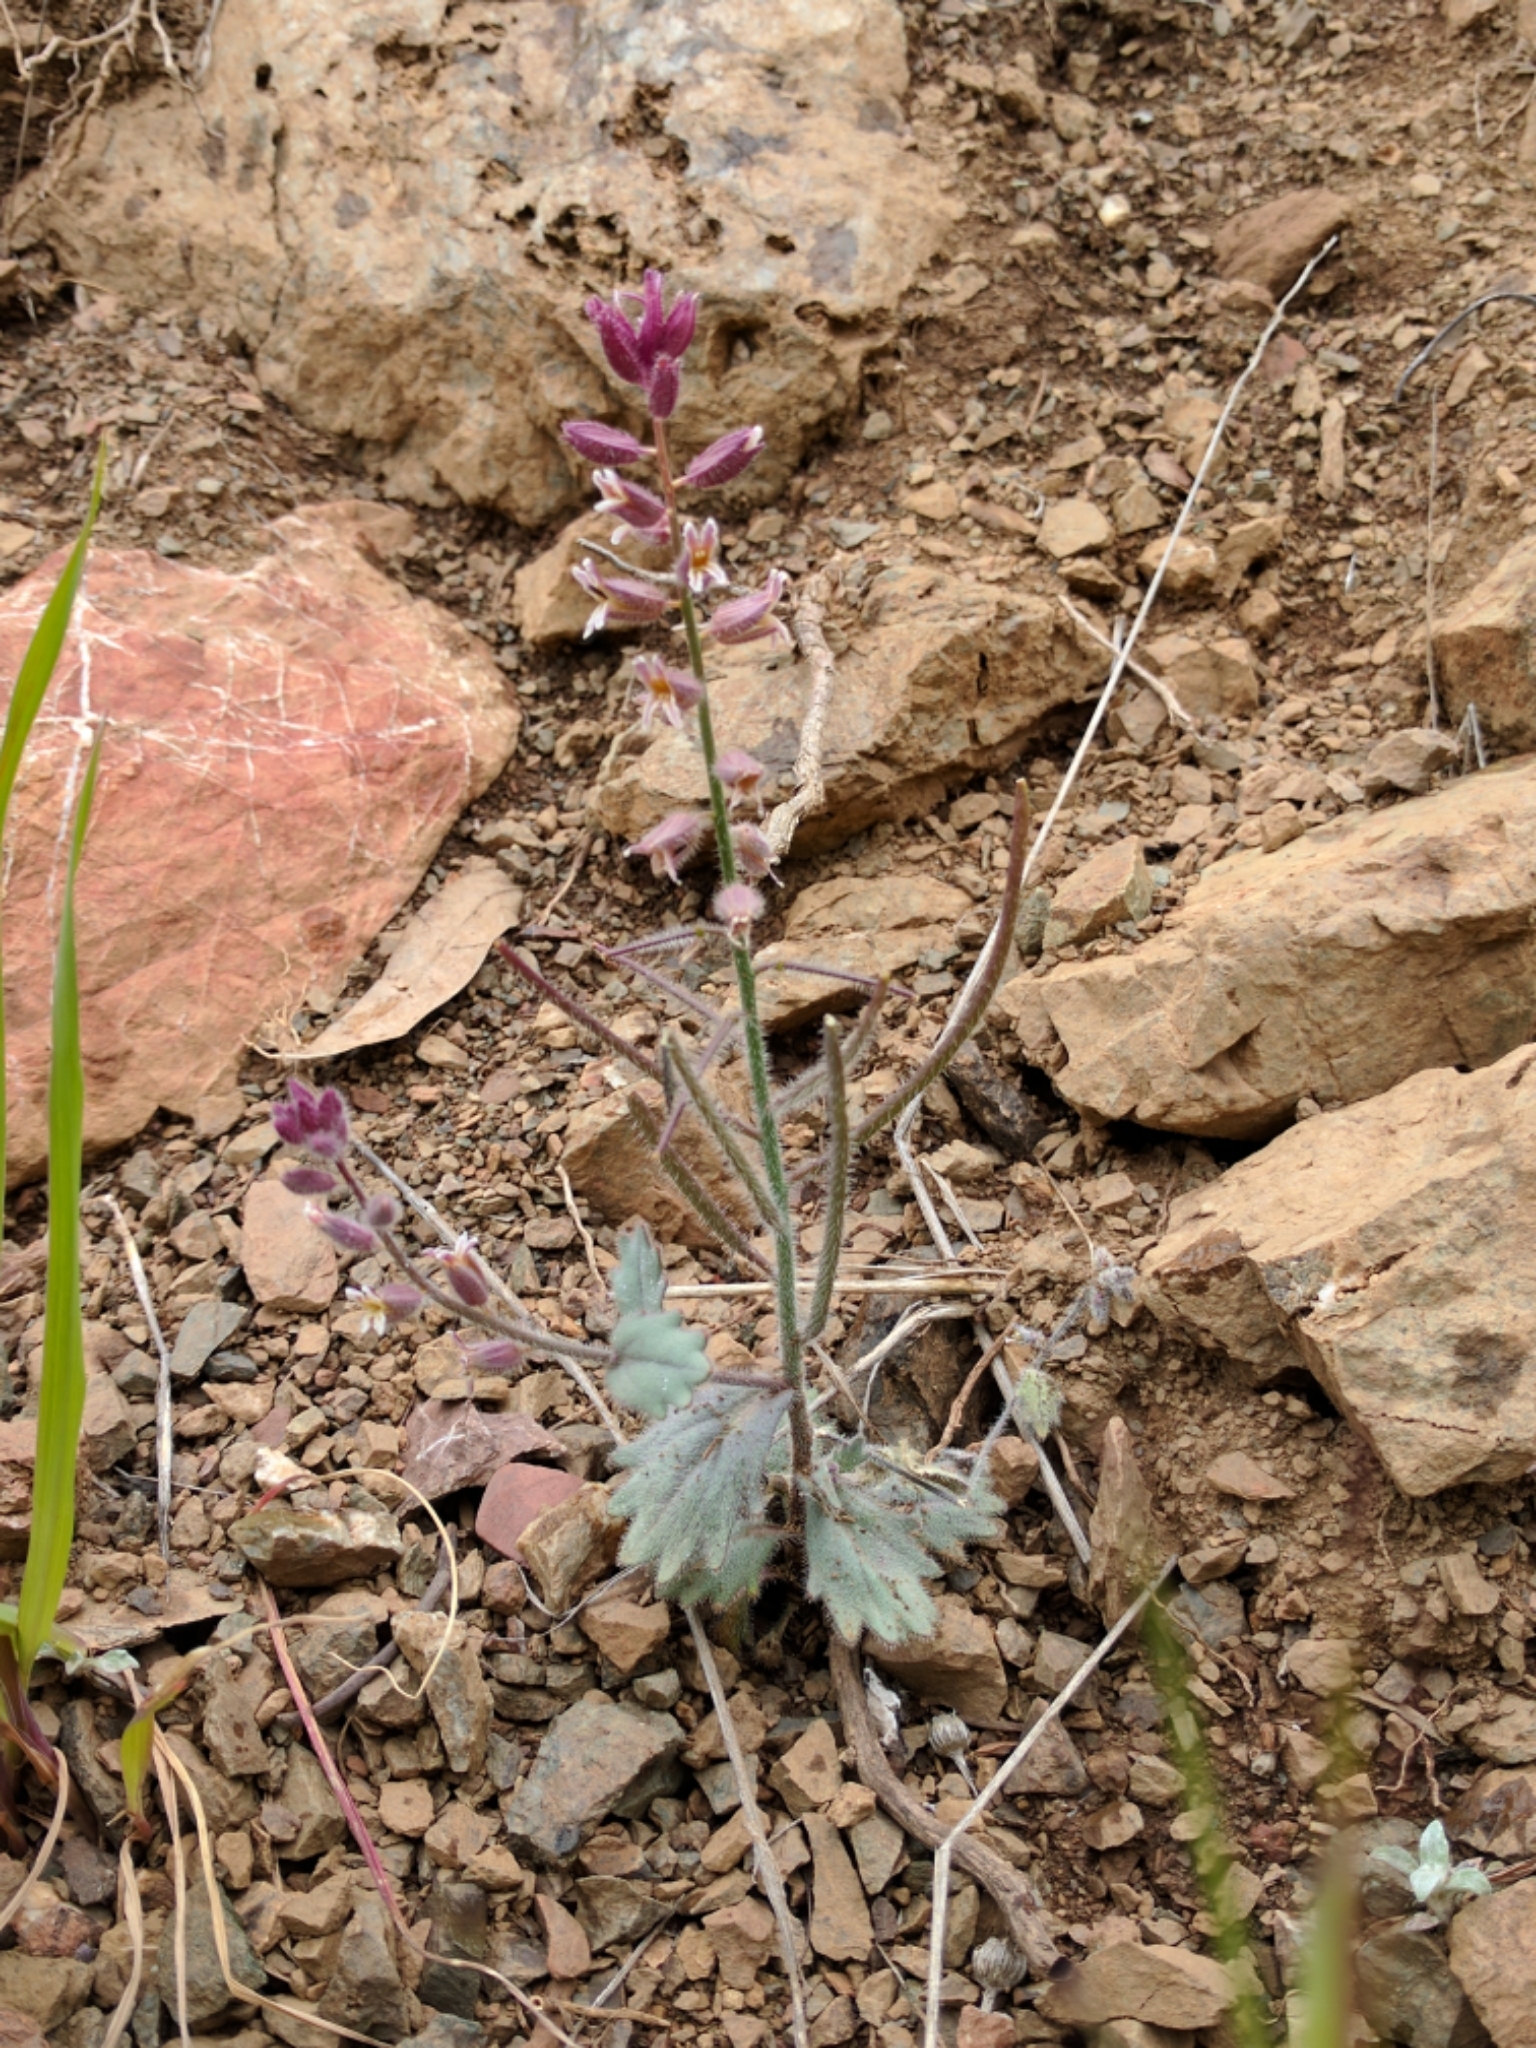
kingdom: Plantae
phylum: Tracheophyta
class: Magnoliopsida
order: Brassicales
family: Brassicaceae
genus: Streptanthus
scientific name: Streptanthus hispidus
